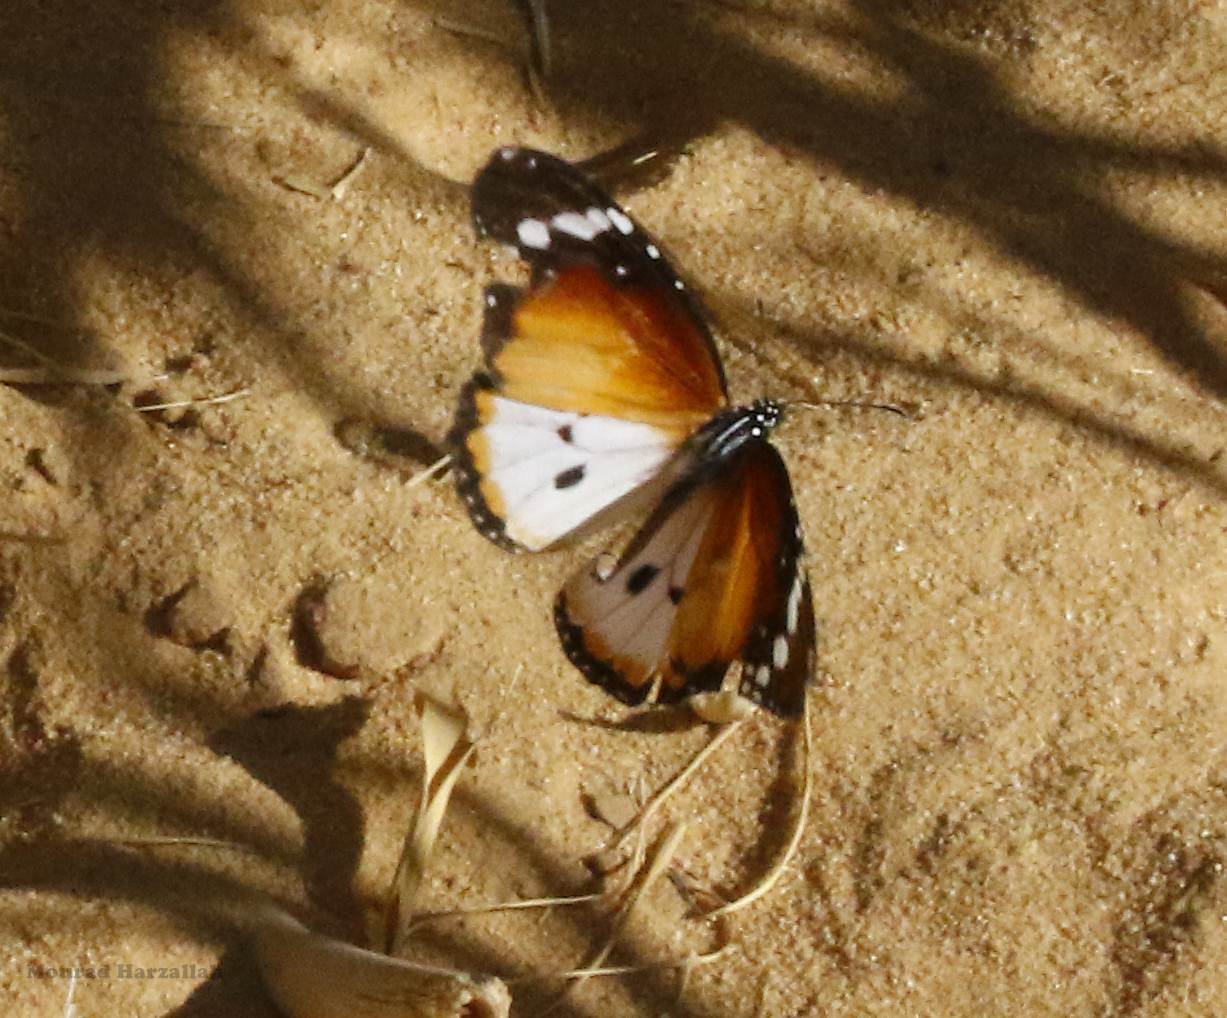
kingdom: Animalia
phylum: Arthropoda
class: Insecta
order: Lepidoptera
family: Nymphalidae
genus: Danaus
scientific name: Danaus chrysippus
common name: Plain tiger
